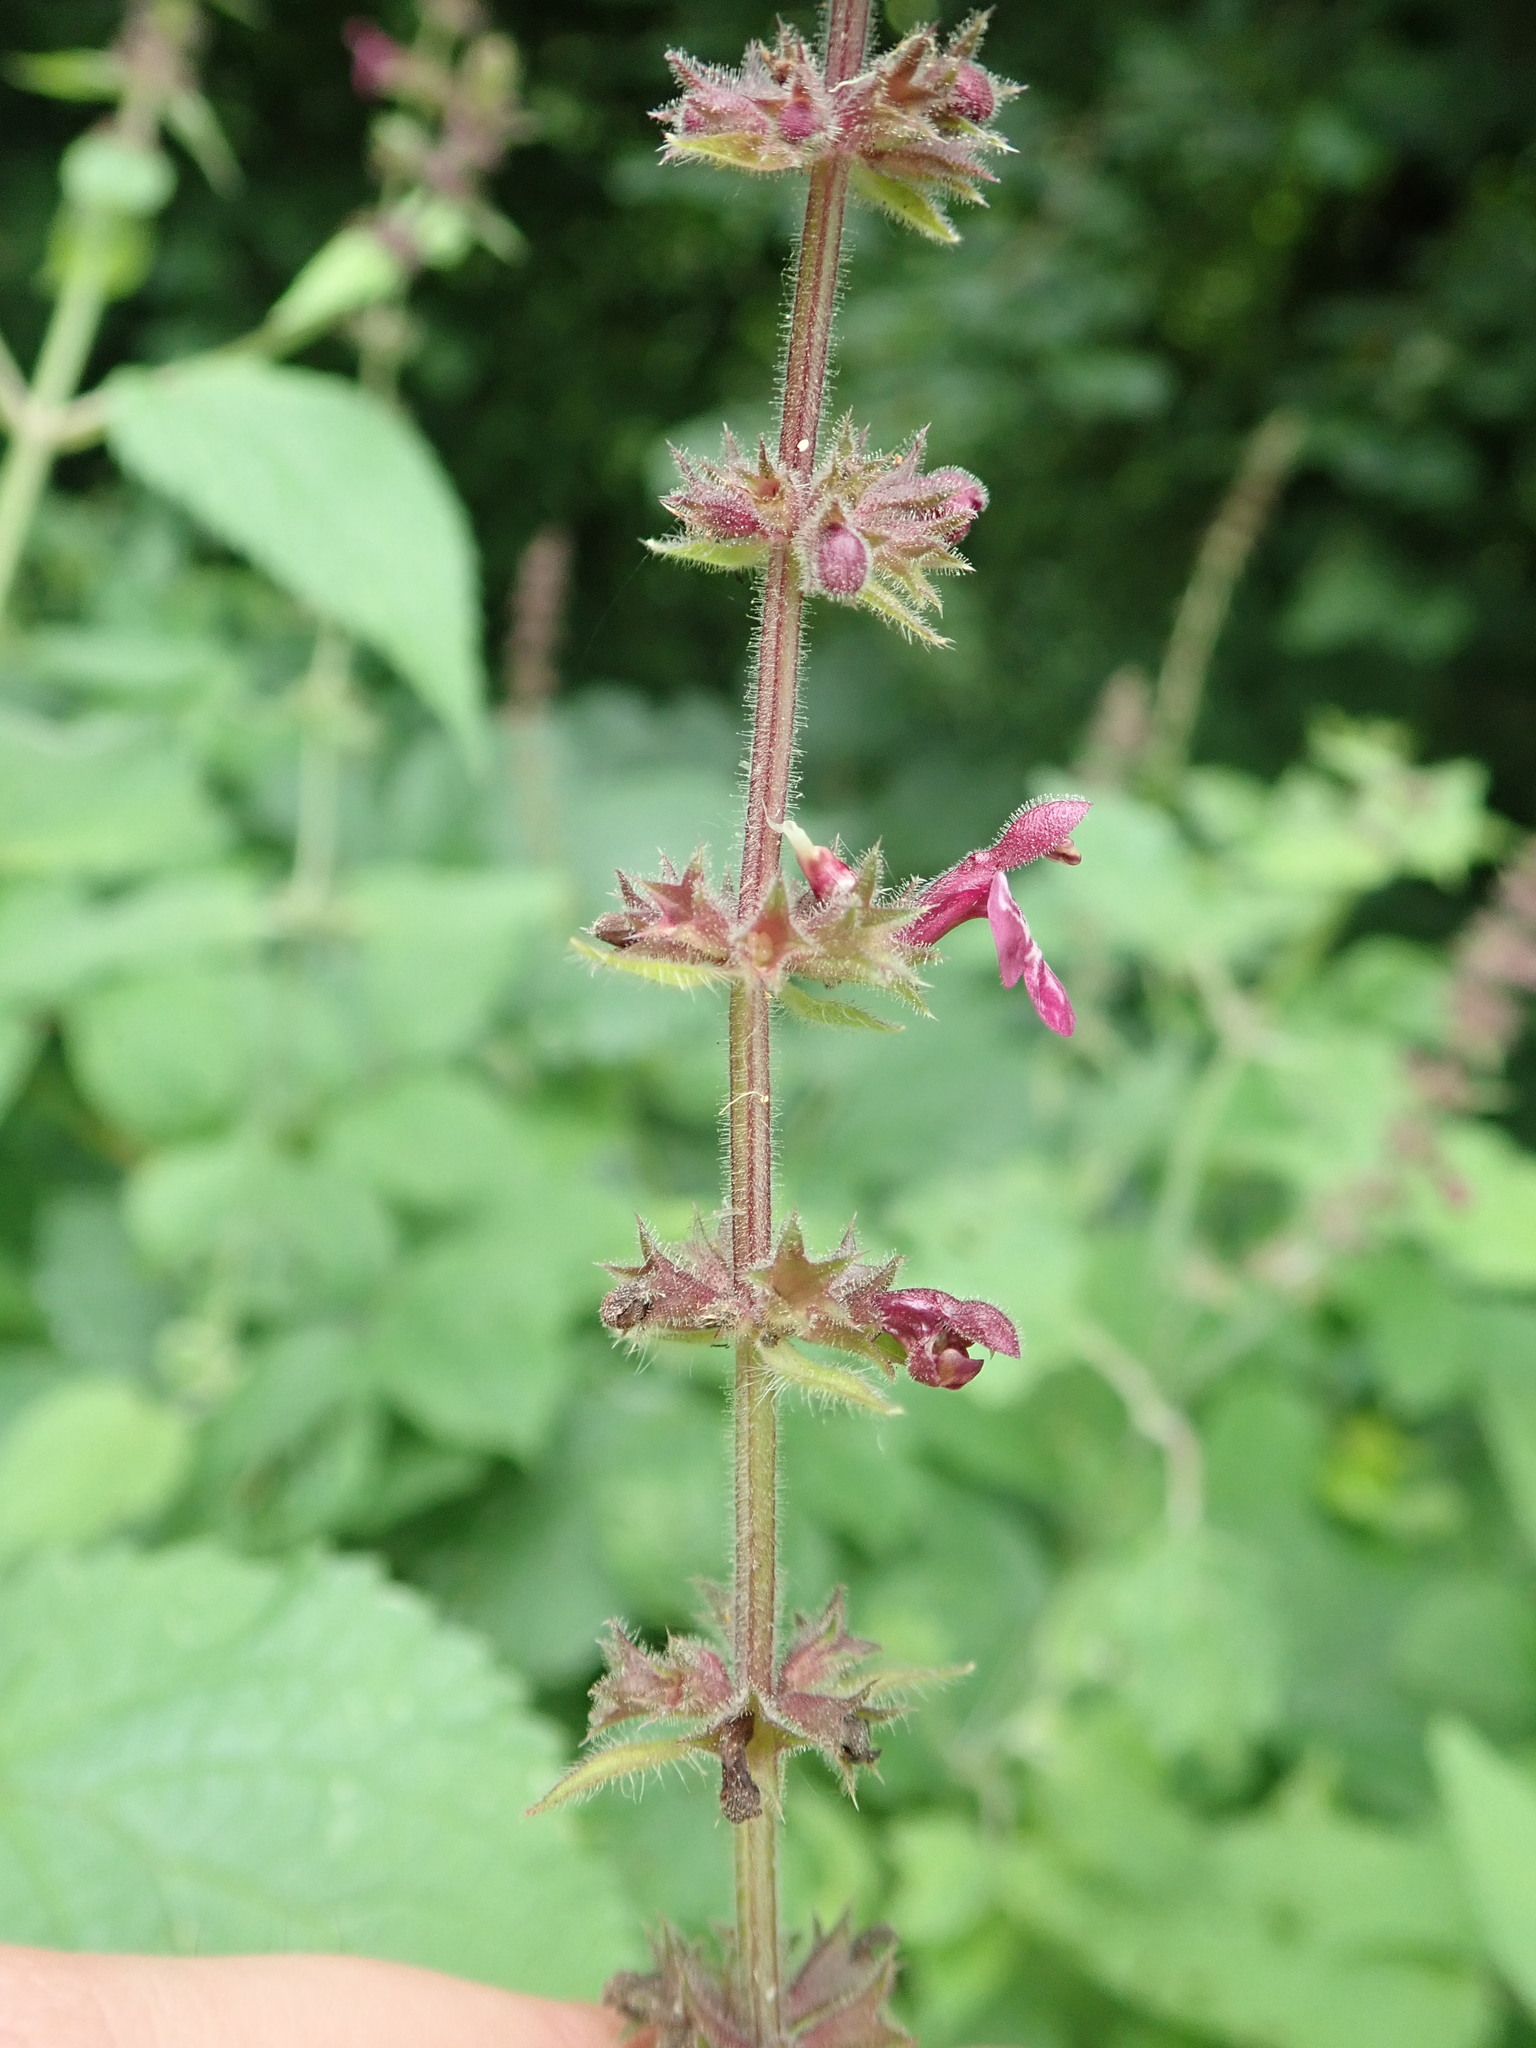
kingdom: Plantae
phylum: Tracheophyta
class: Magnoliopsida
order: Lamiales
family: Lamiaceae
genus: Stachys
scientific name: Stachys sylvatica
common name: Hedge woundwort
